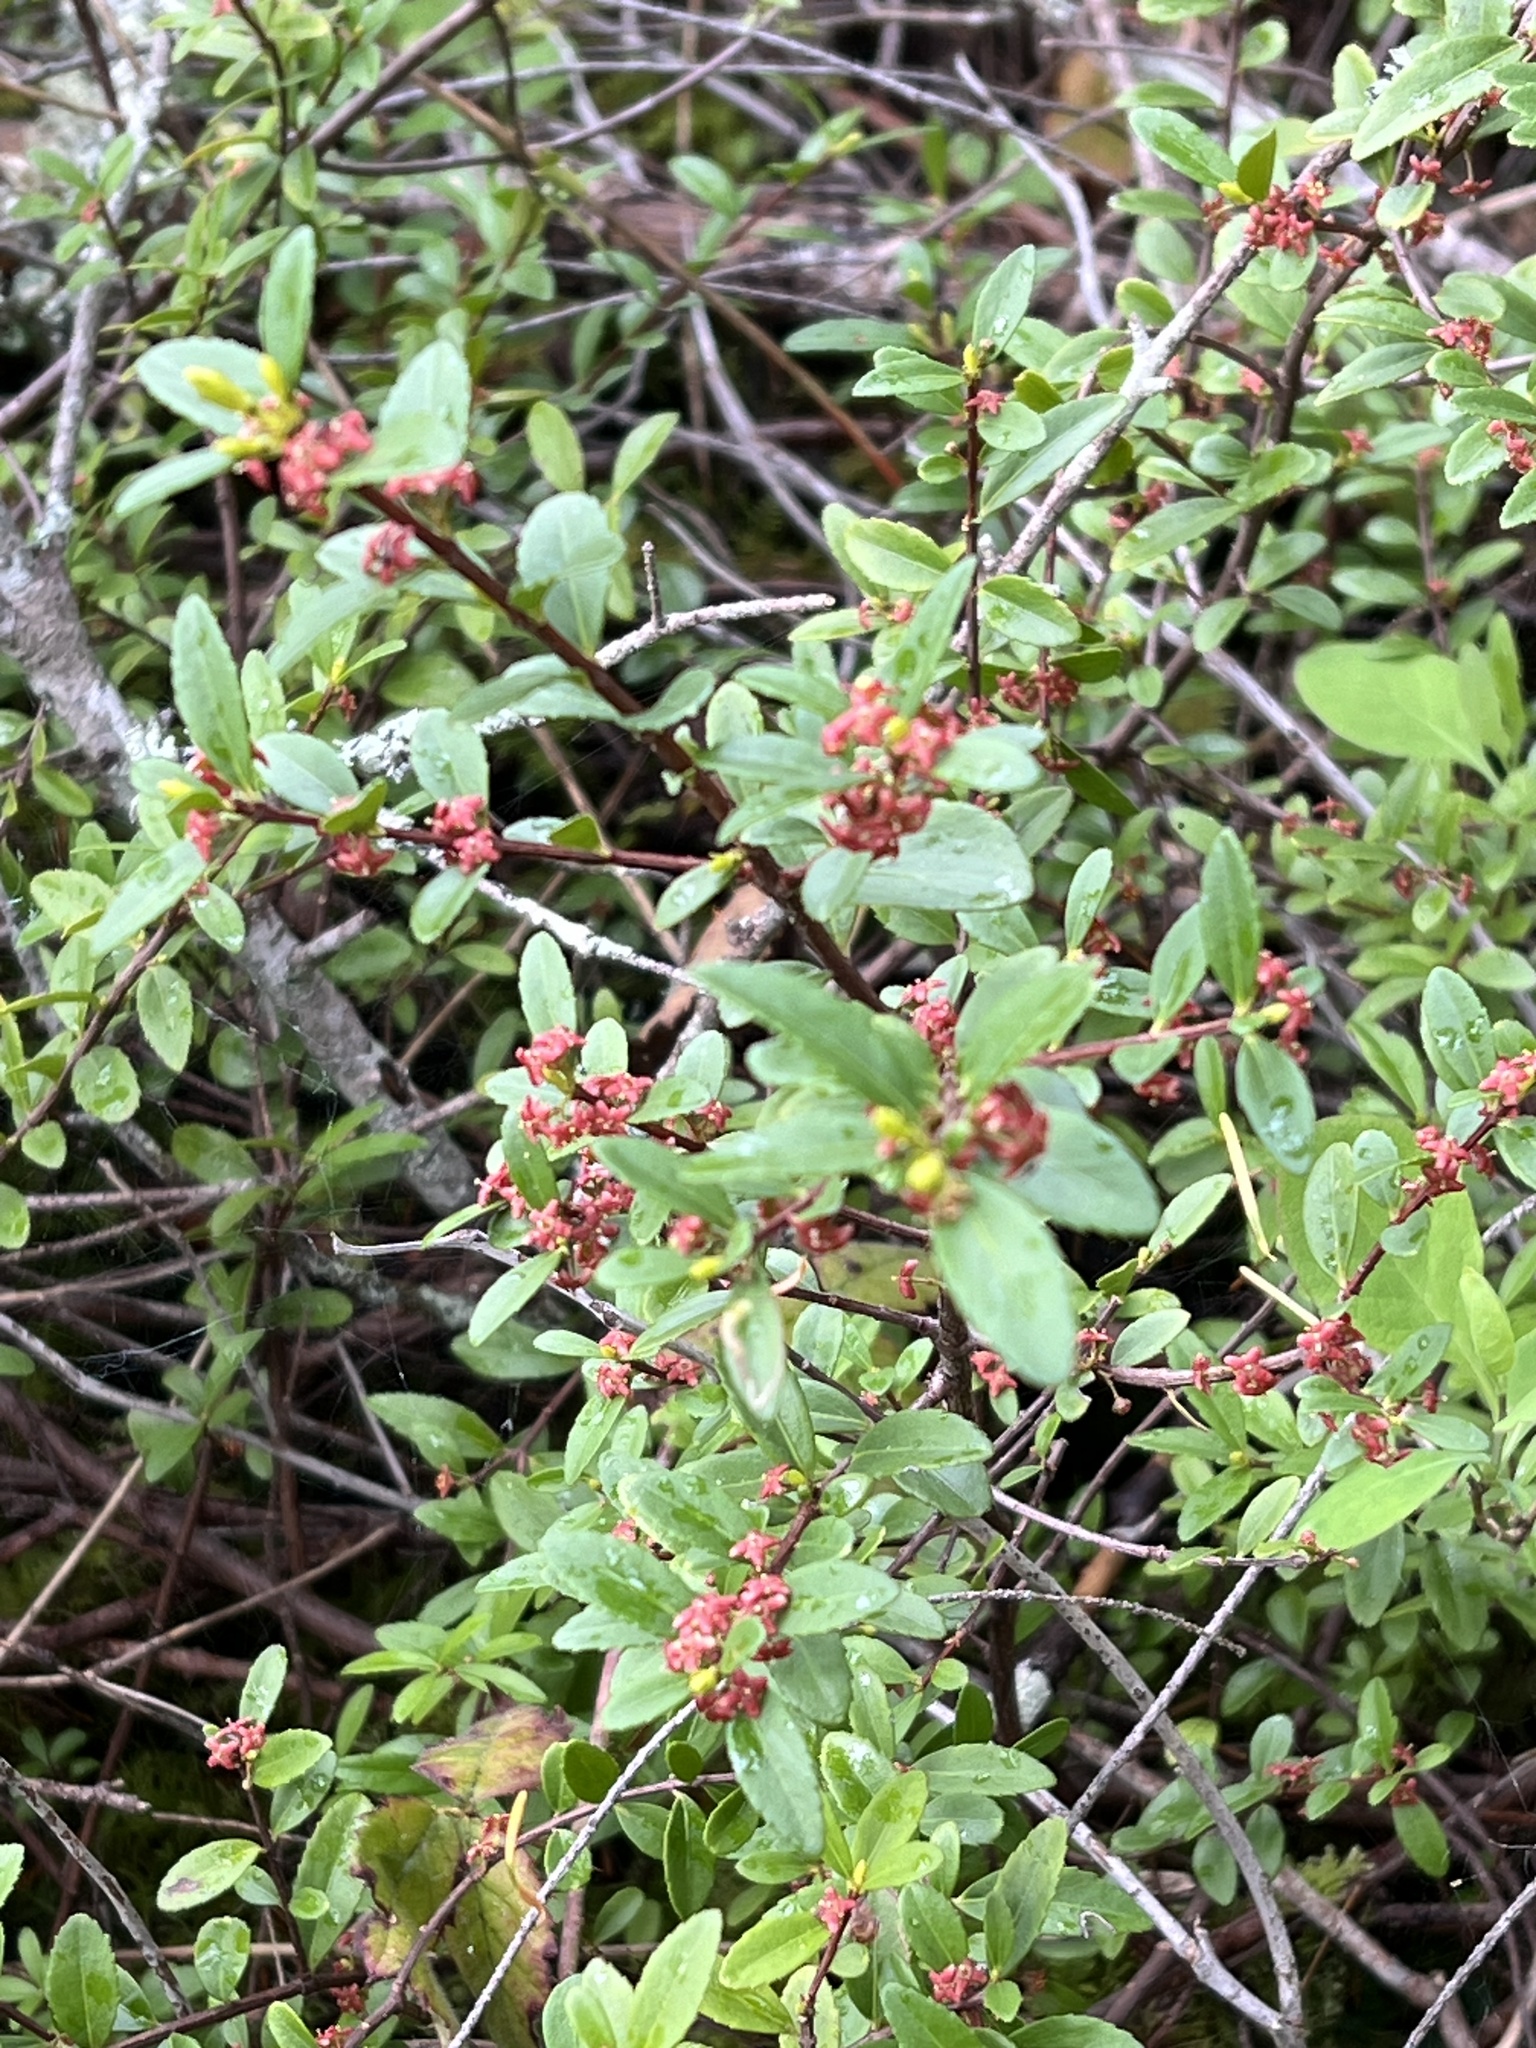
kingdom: Plantae
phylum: Tracheophyta
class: Magnoliopsida
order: Celastrales
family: Celastraceae
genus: Paxistima
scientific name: Paxistima myrsinites
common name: Mountain-lover
